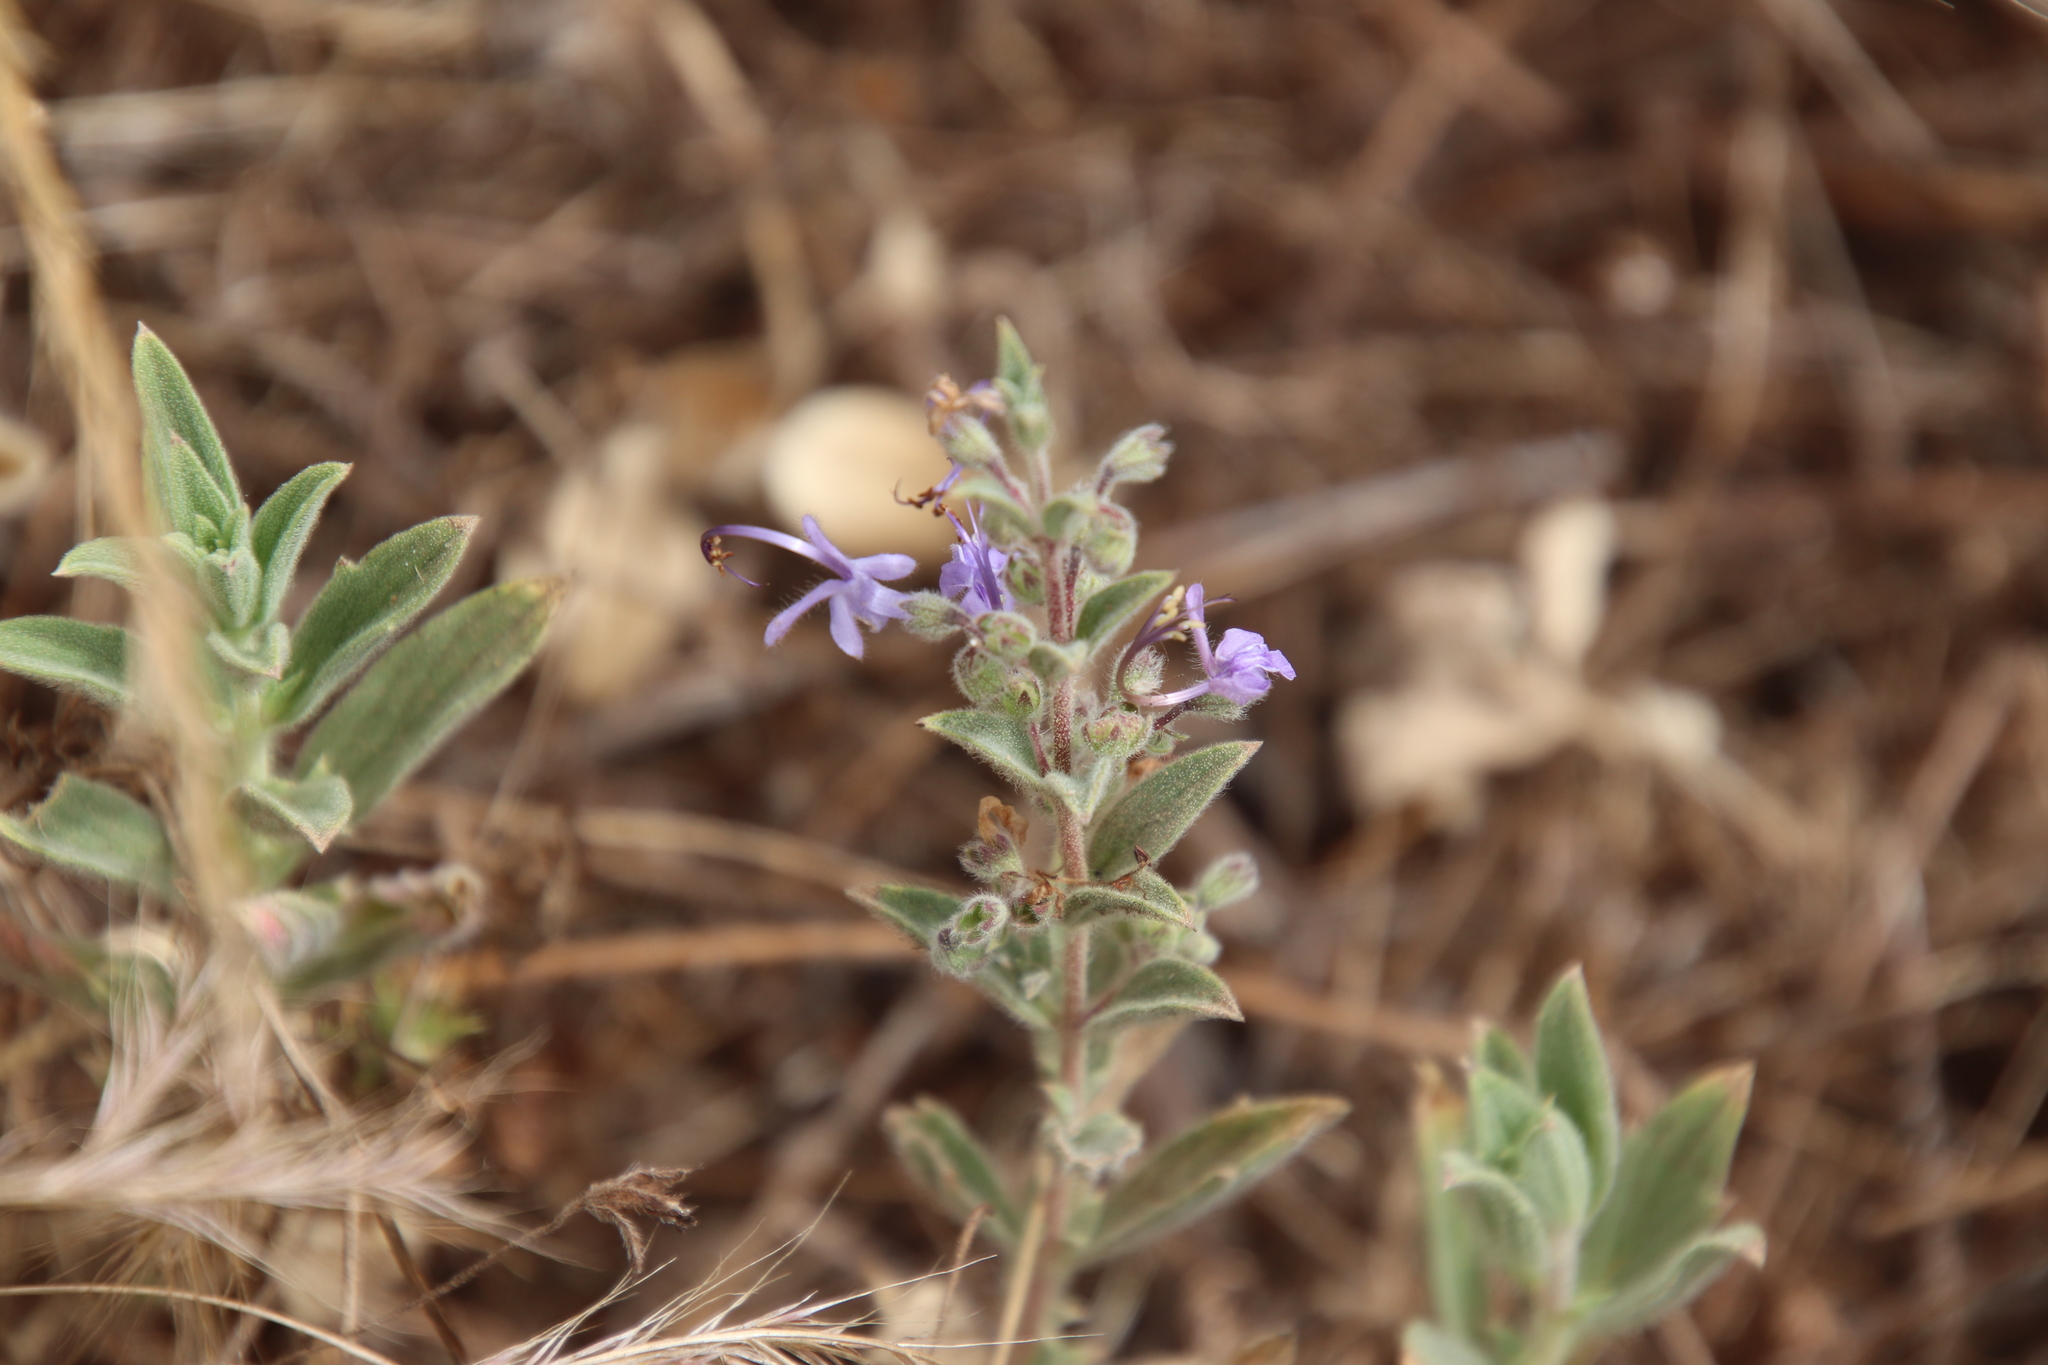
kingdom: Plantae
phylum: Tracheophyta
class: Magnoliopsida
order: Lamiales
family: Lamiaceae
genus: Trichostema
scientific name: Trichostema lanceolatum
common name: Vinegar-weed
